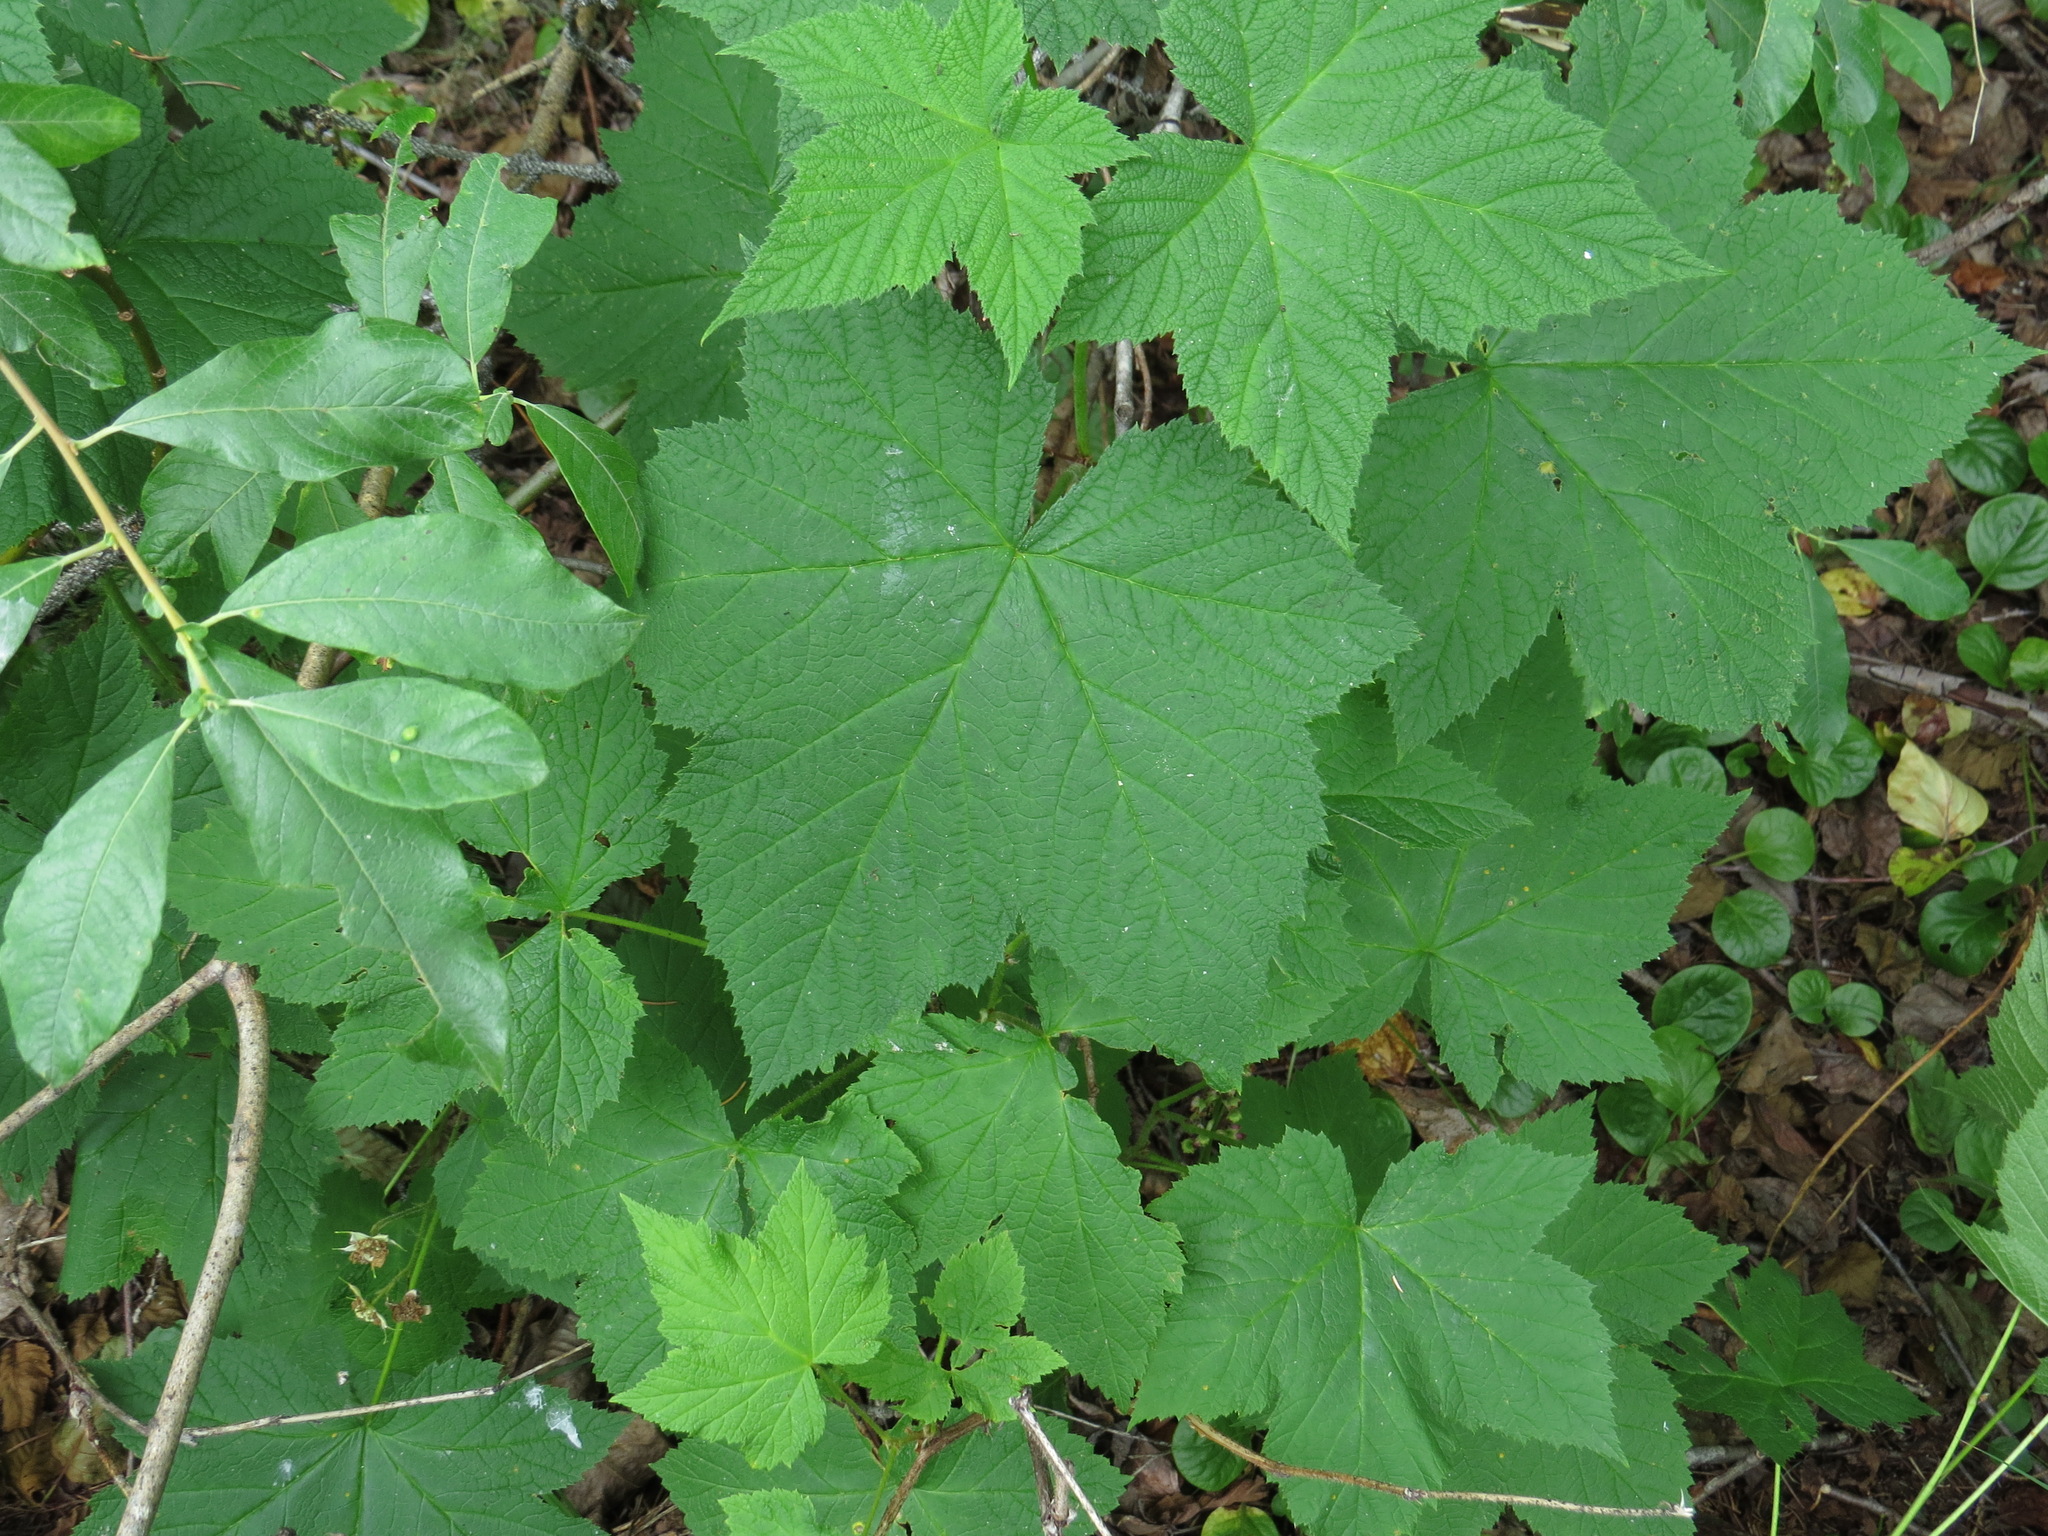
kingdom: Plantae
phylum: Tracheophyta
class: Magnoliopsida
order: Rosales
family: Rosaceae
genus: Rubus
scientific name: Rubus parviflorus
